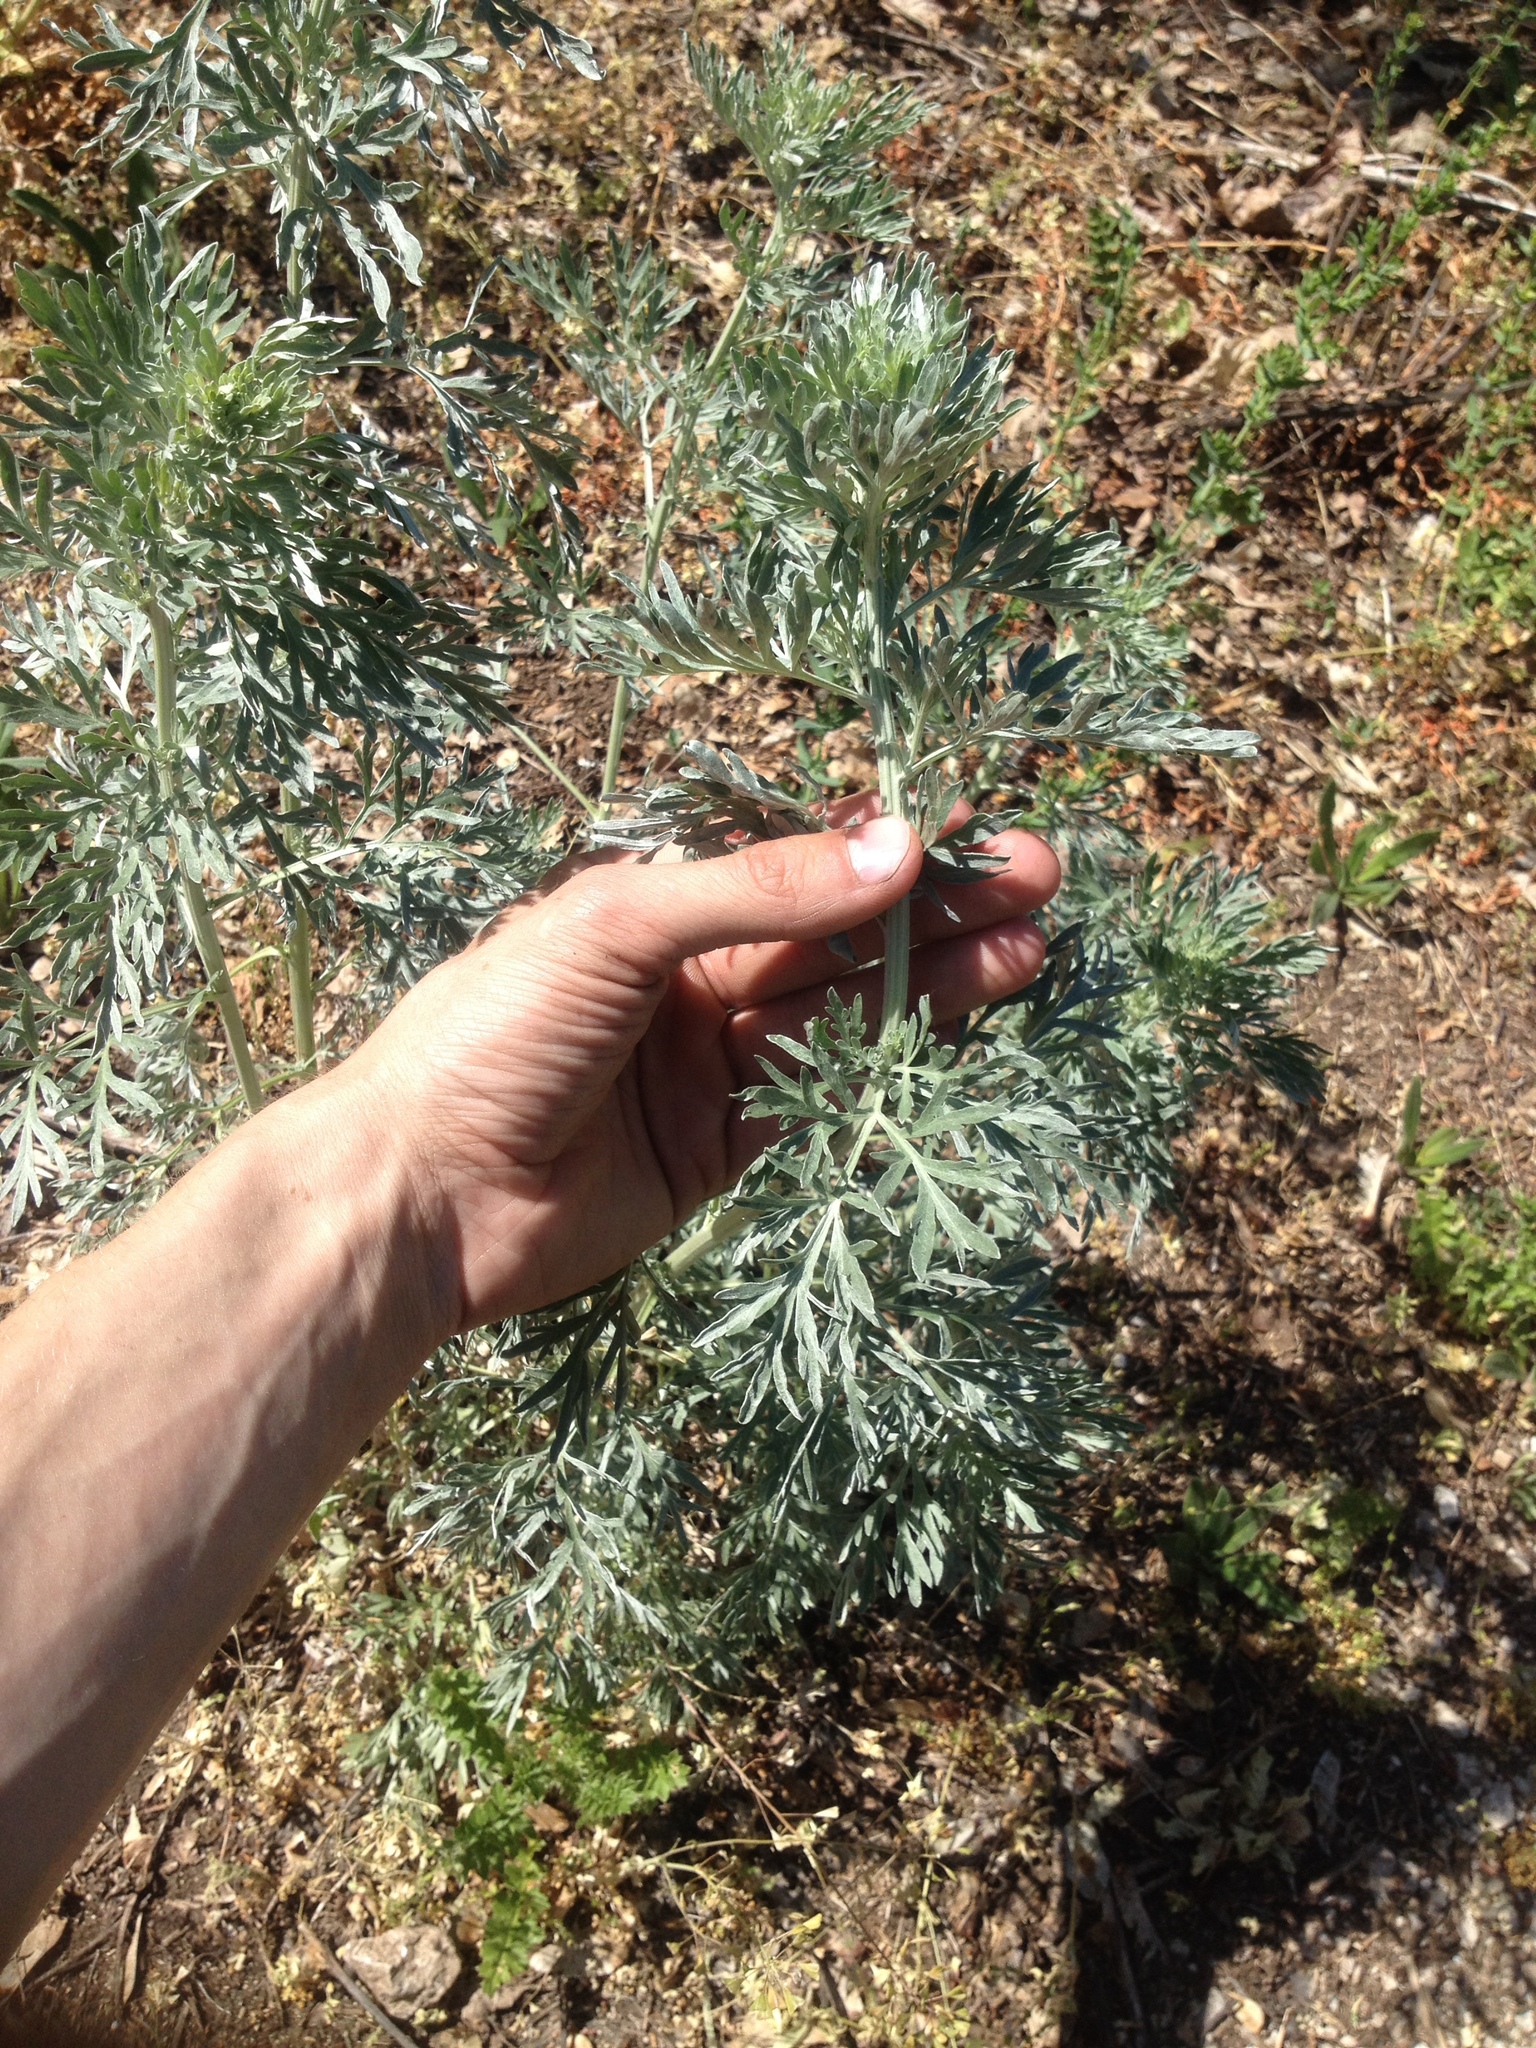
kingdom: Plantae
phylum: Tracheophyta
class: Magnoliopsida
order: Asterales
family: Asteraceae
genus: Artemisia
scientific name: Artemisia absinthium
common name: Wormwood
